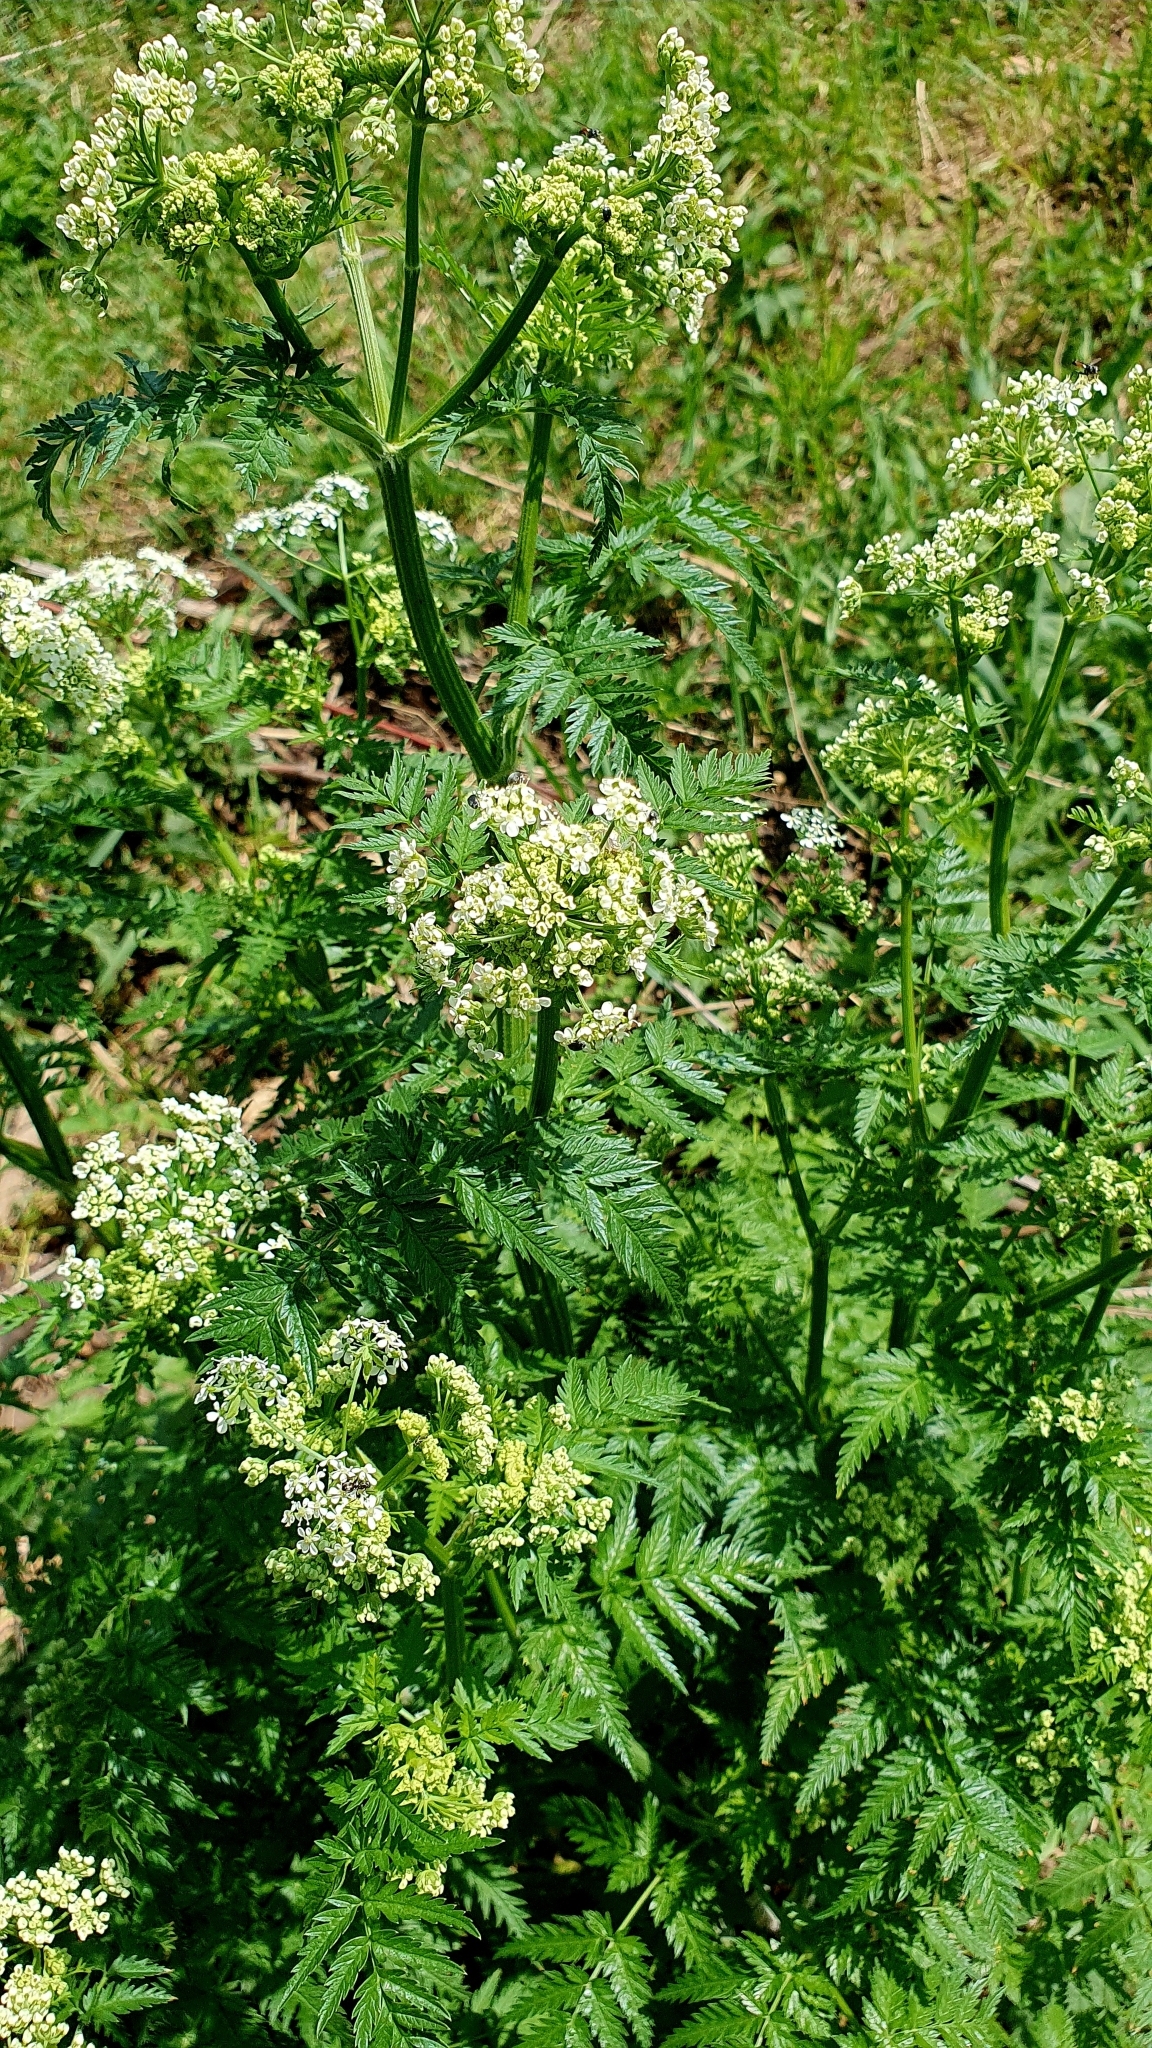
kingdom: Plantae
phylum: Tracheophyta
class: Magnoliopsida
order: Apiales
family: Apiaceae
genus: Anthriscus
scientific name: Anthriscus sylvestris
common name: Cow parsley
